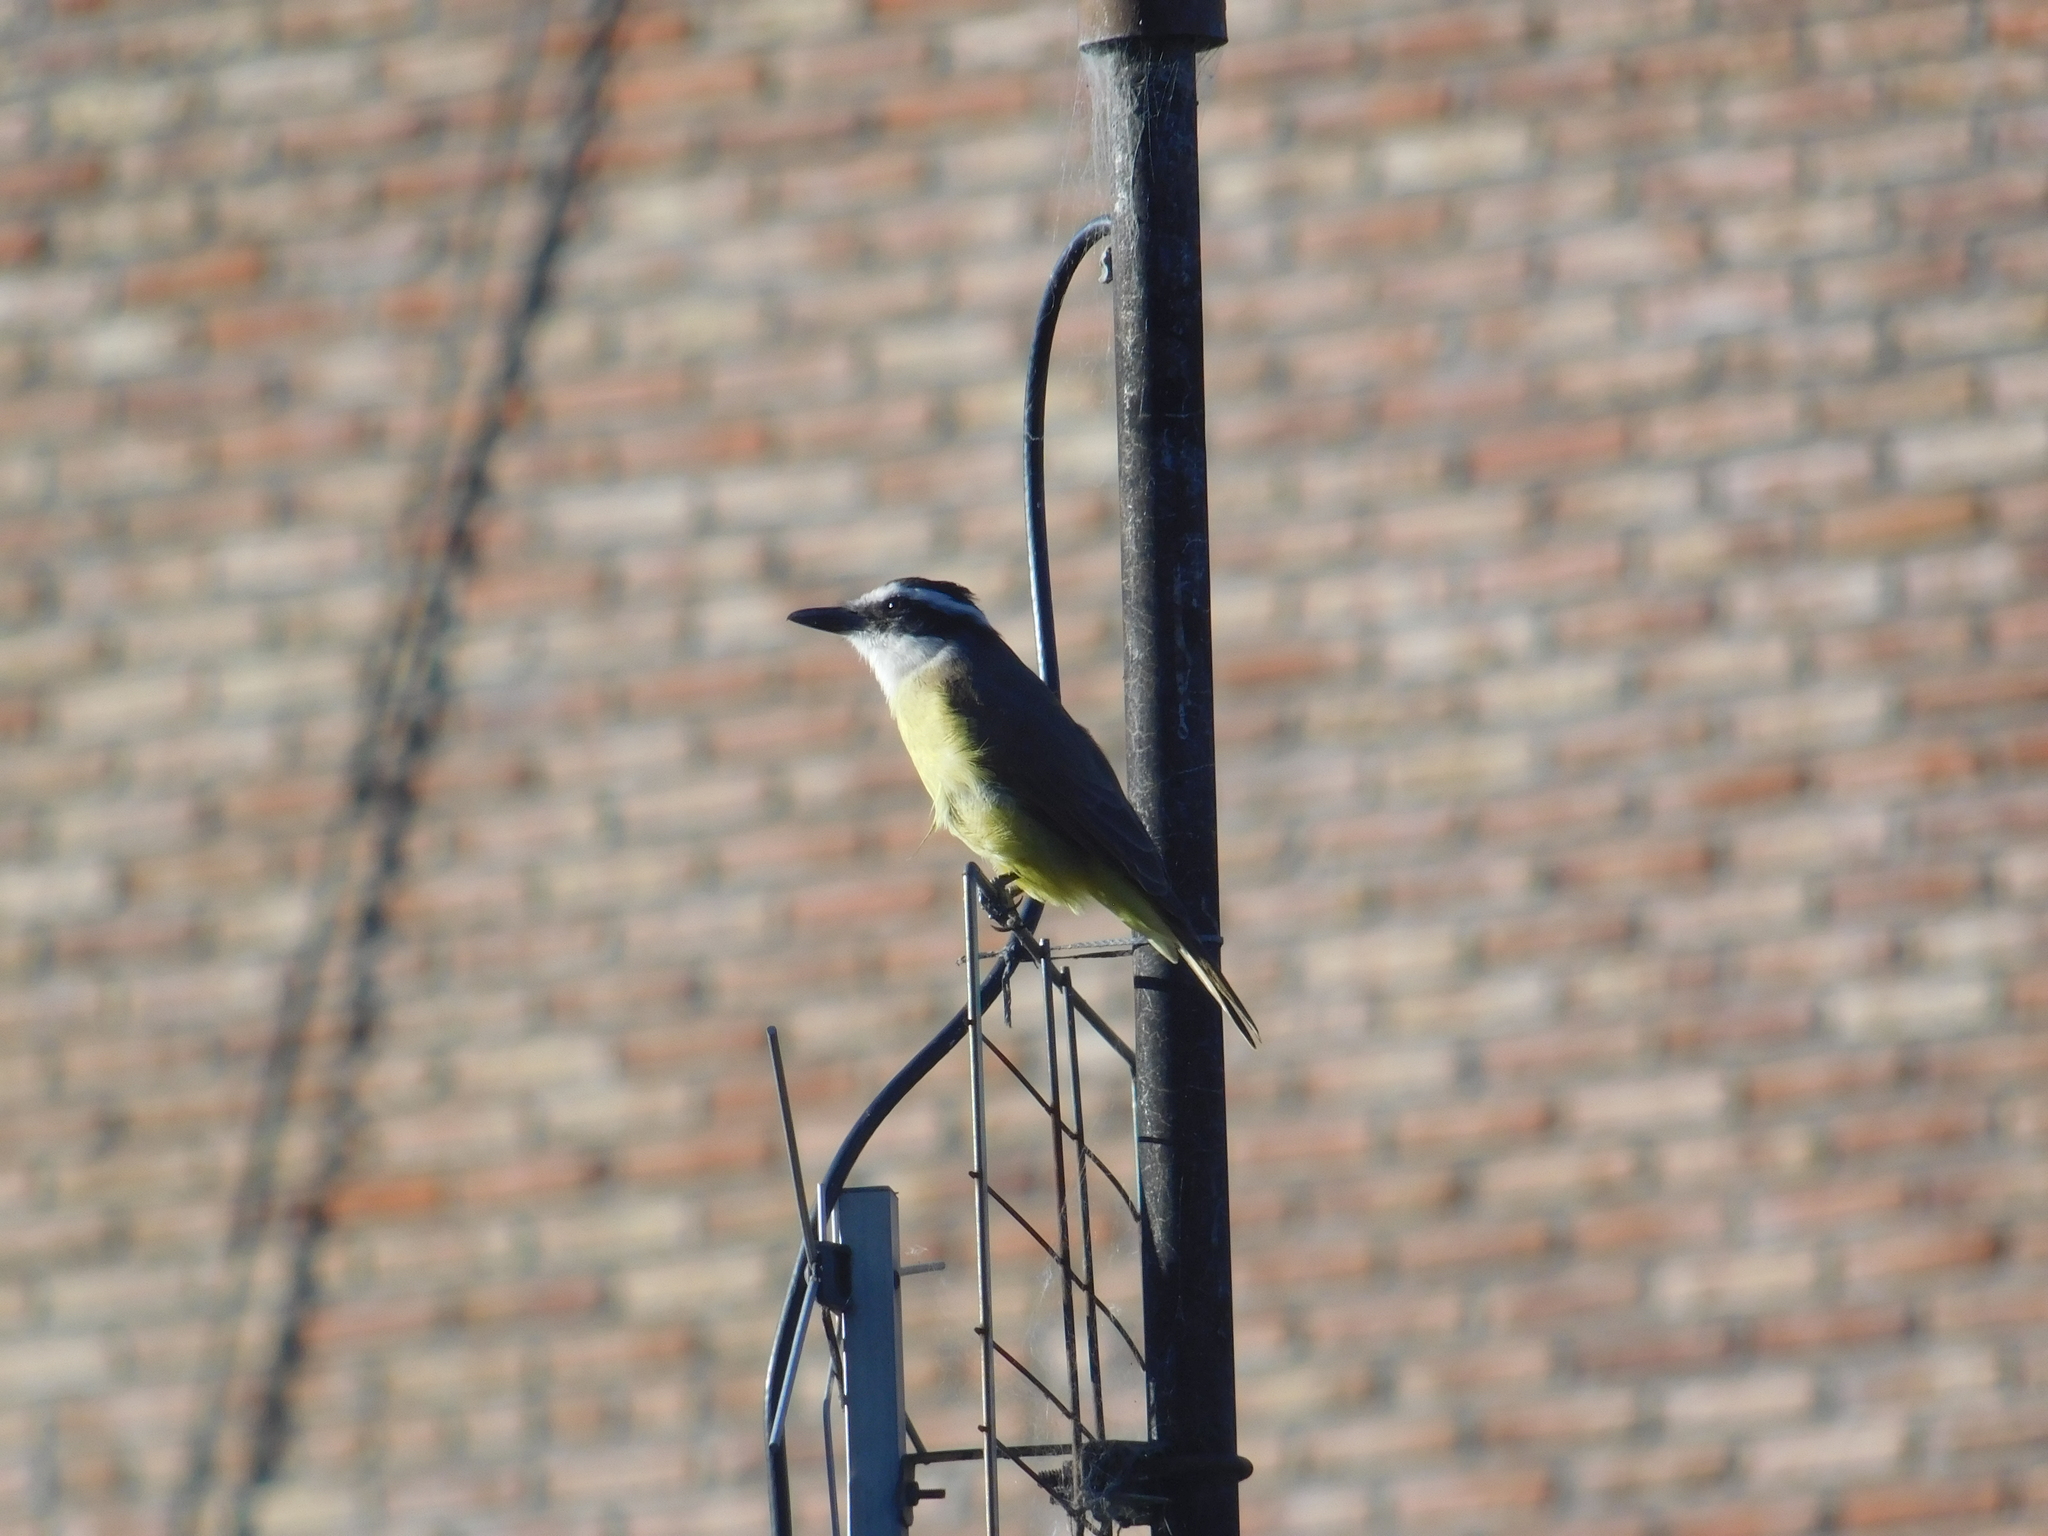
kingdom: Animalia
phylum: Chordata
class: Aves
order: Passeriformes
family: Tyrannidae
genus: Pitangus
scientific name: Pitangus sulphuratus
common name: Great kiskadee
